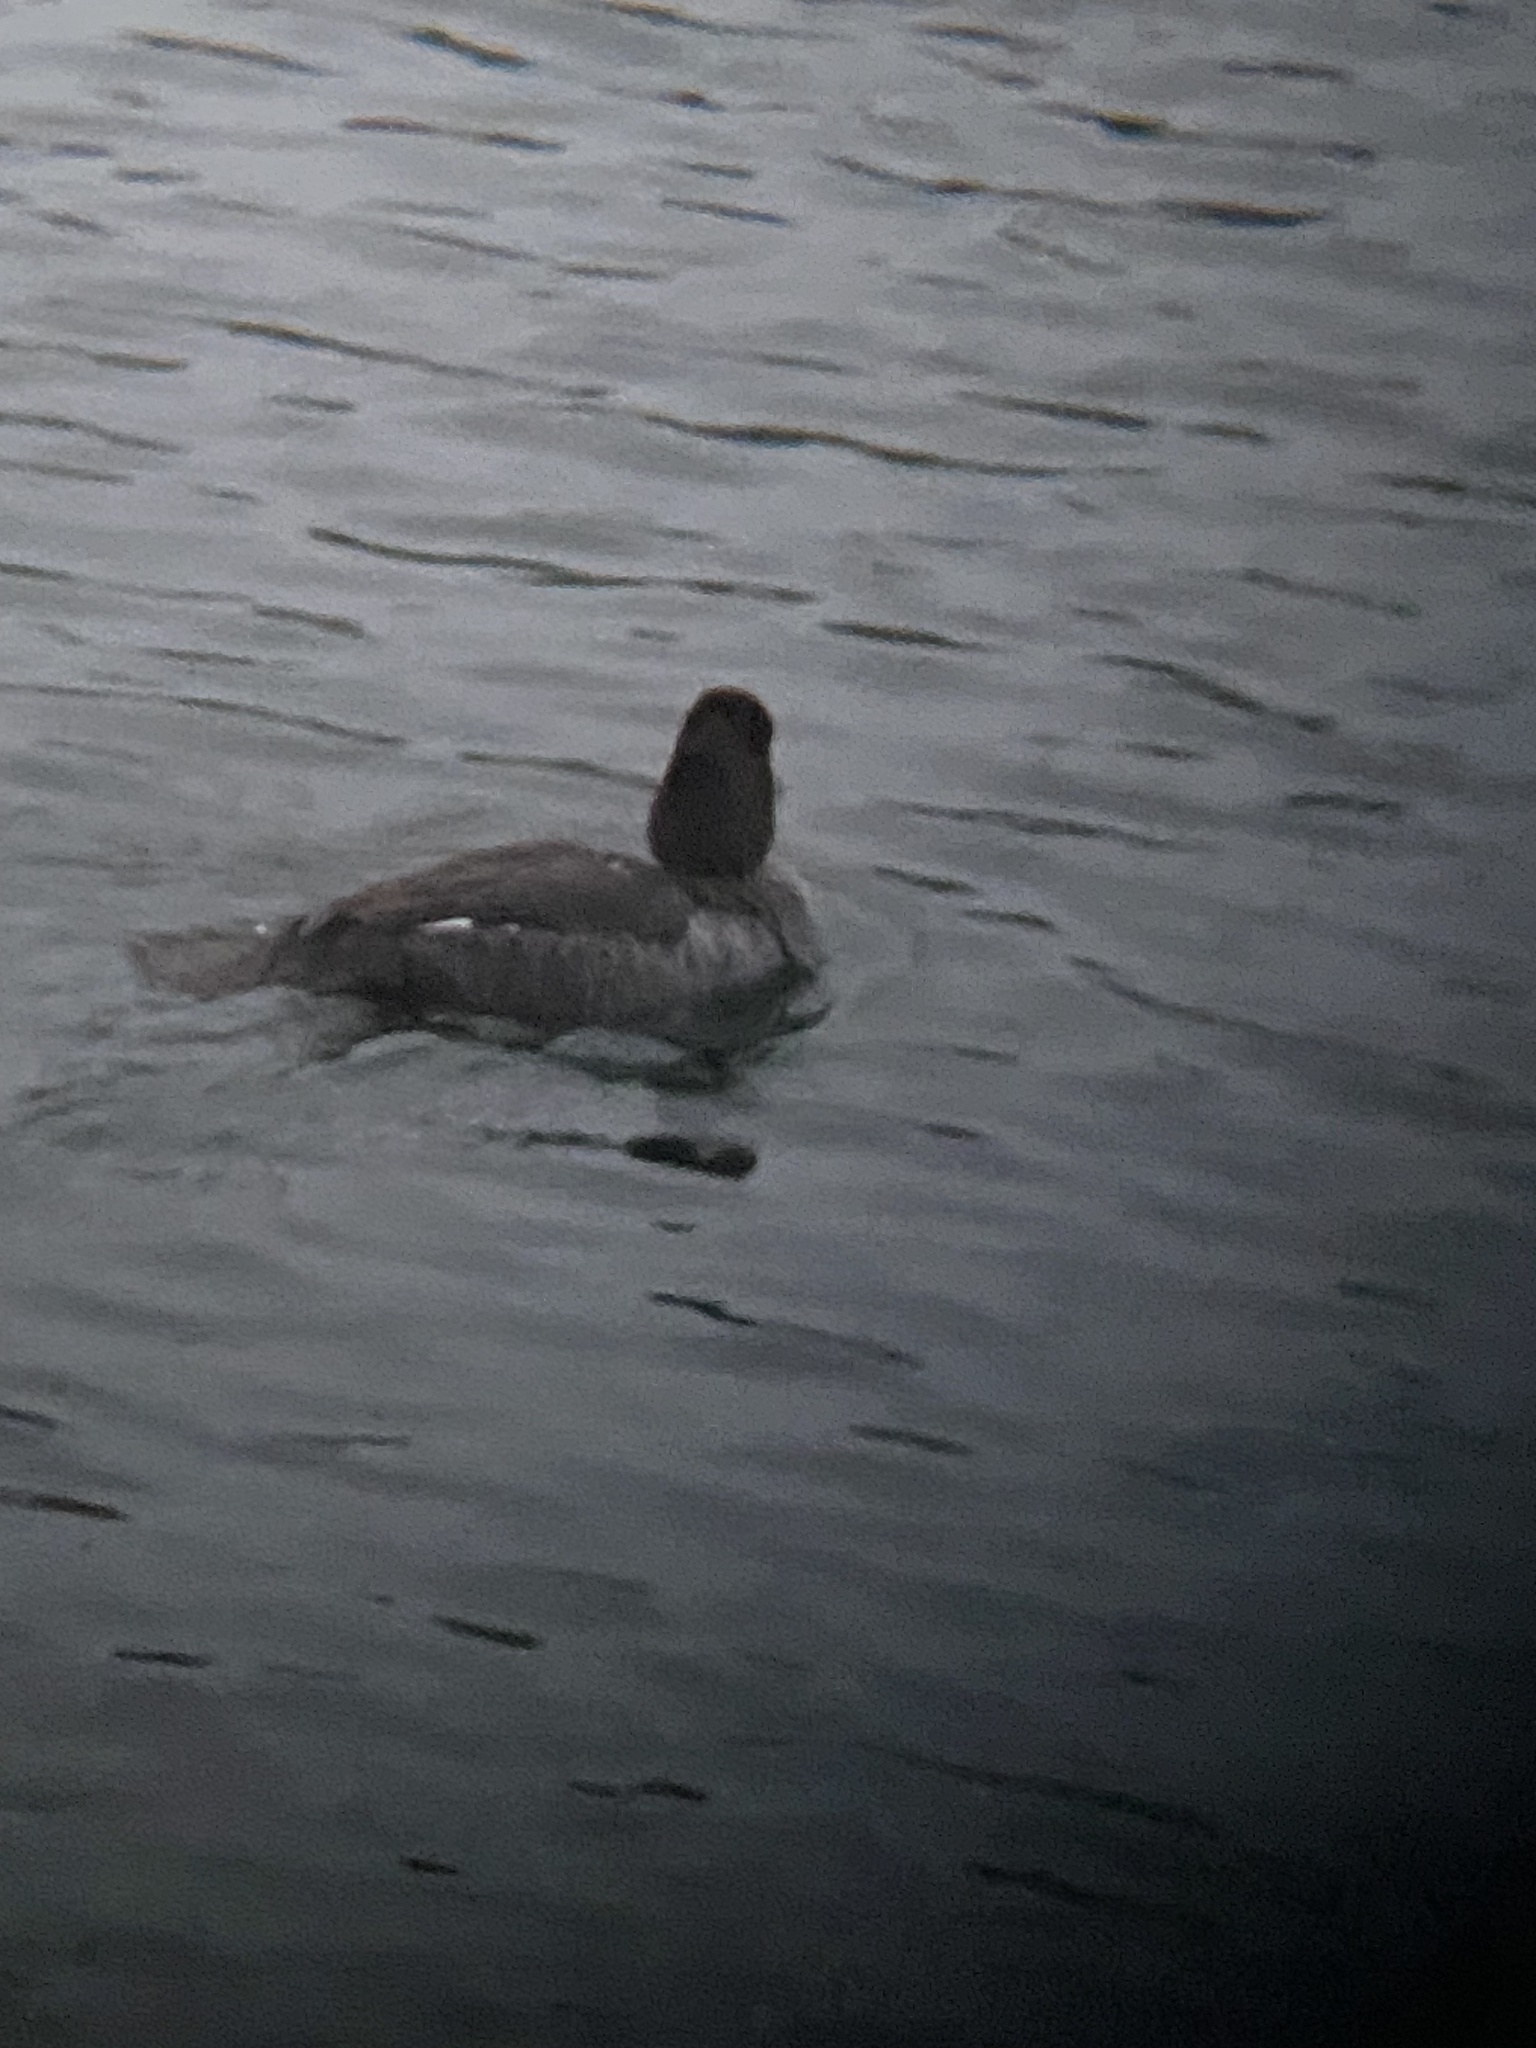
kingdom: Animalia
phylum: Chordata
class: Aves
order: Anseriformes
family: Anatidae
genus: Bucephala
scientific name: Bucephala clangula
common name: Common goldeneye
